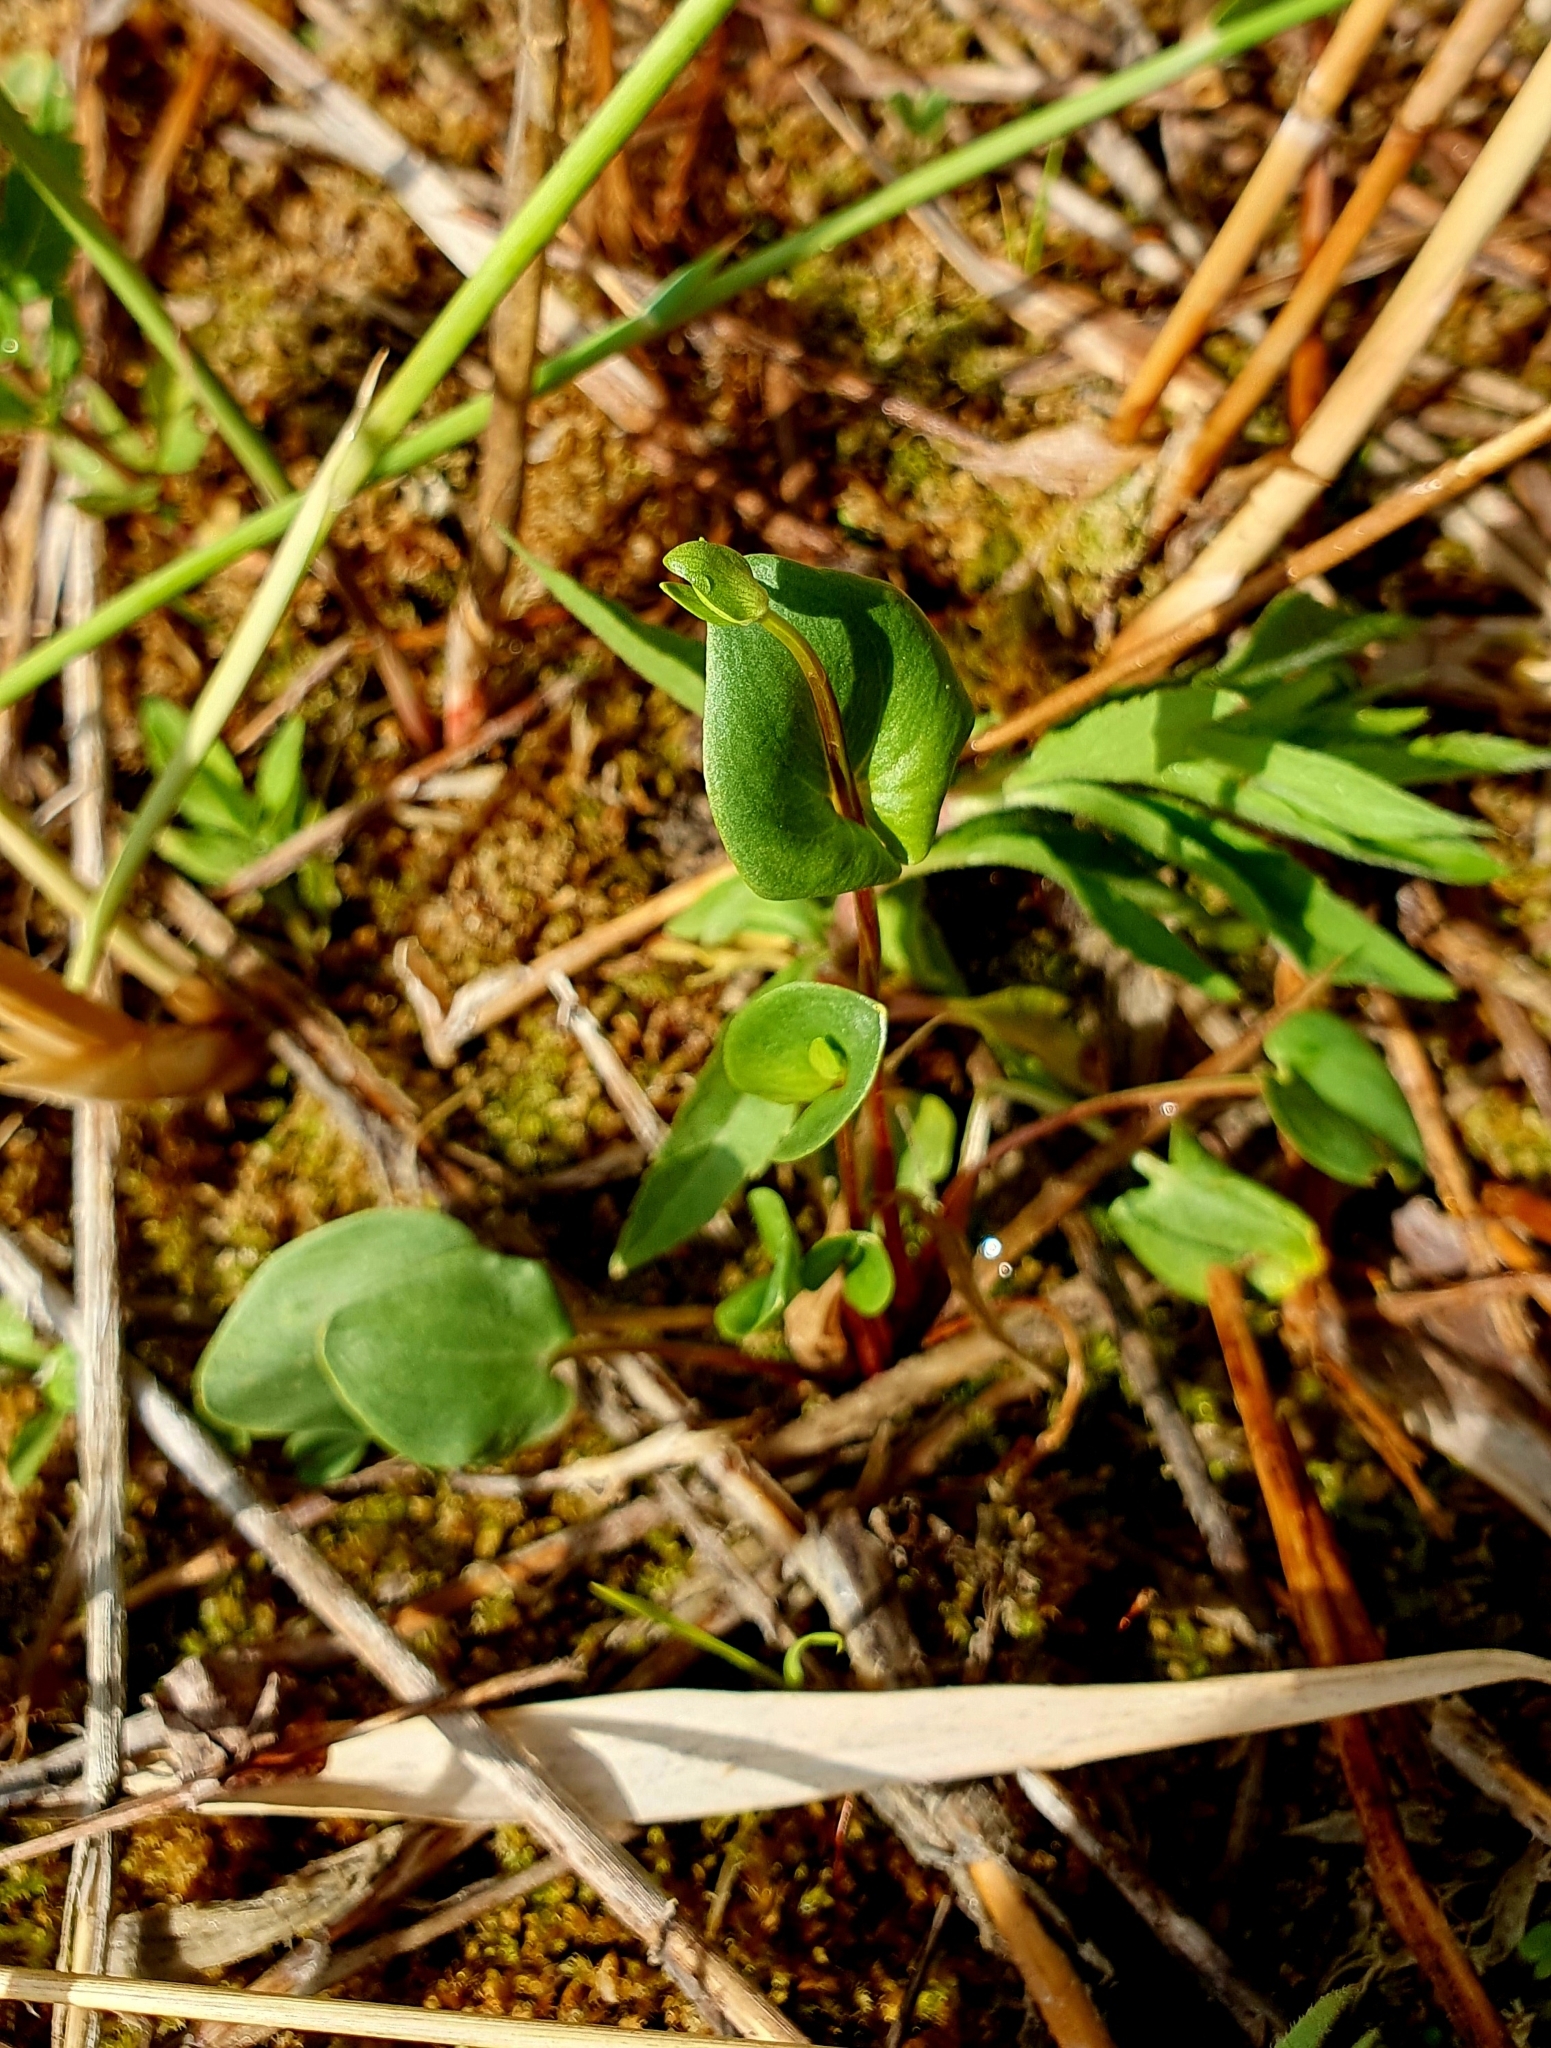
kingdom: Plantae
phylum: Tracheophyta
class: Magnoliopsida
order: Celastrales
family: Parnassiaceae
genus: Parnassia
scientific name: Parnassia palustris
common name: Grass-of-parnassus
